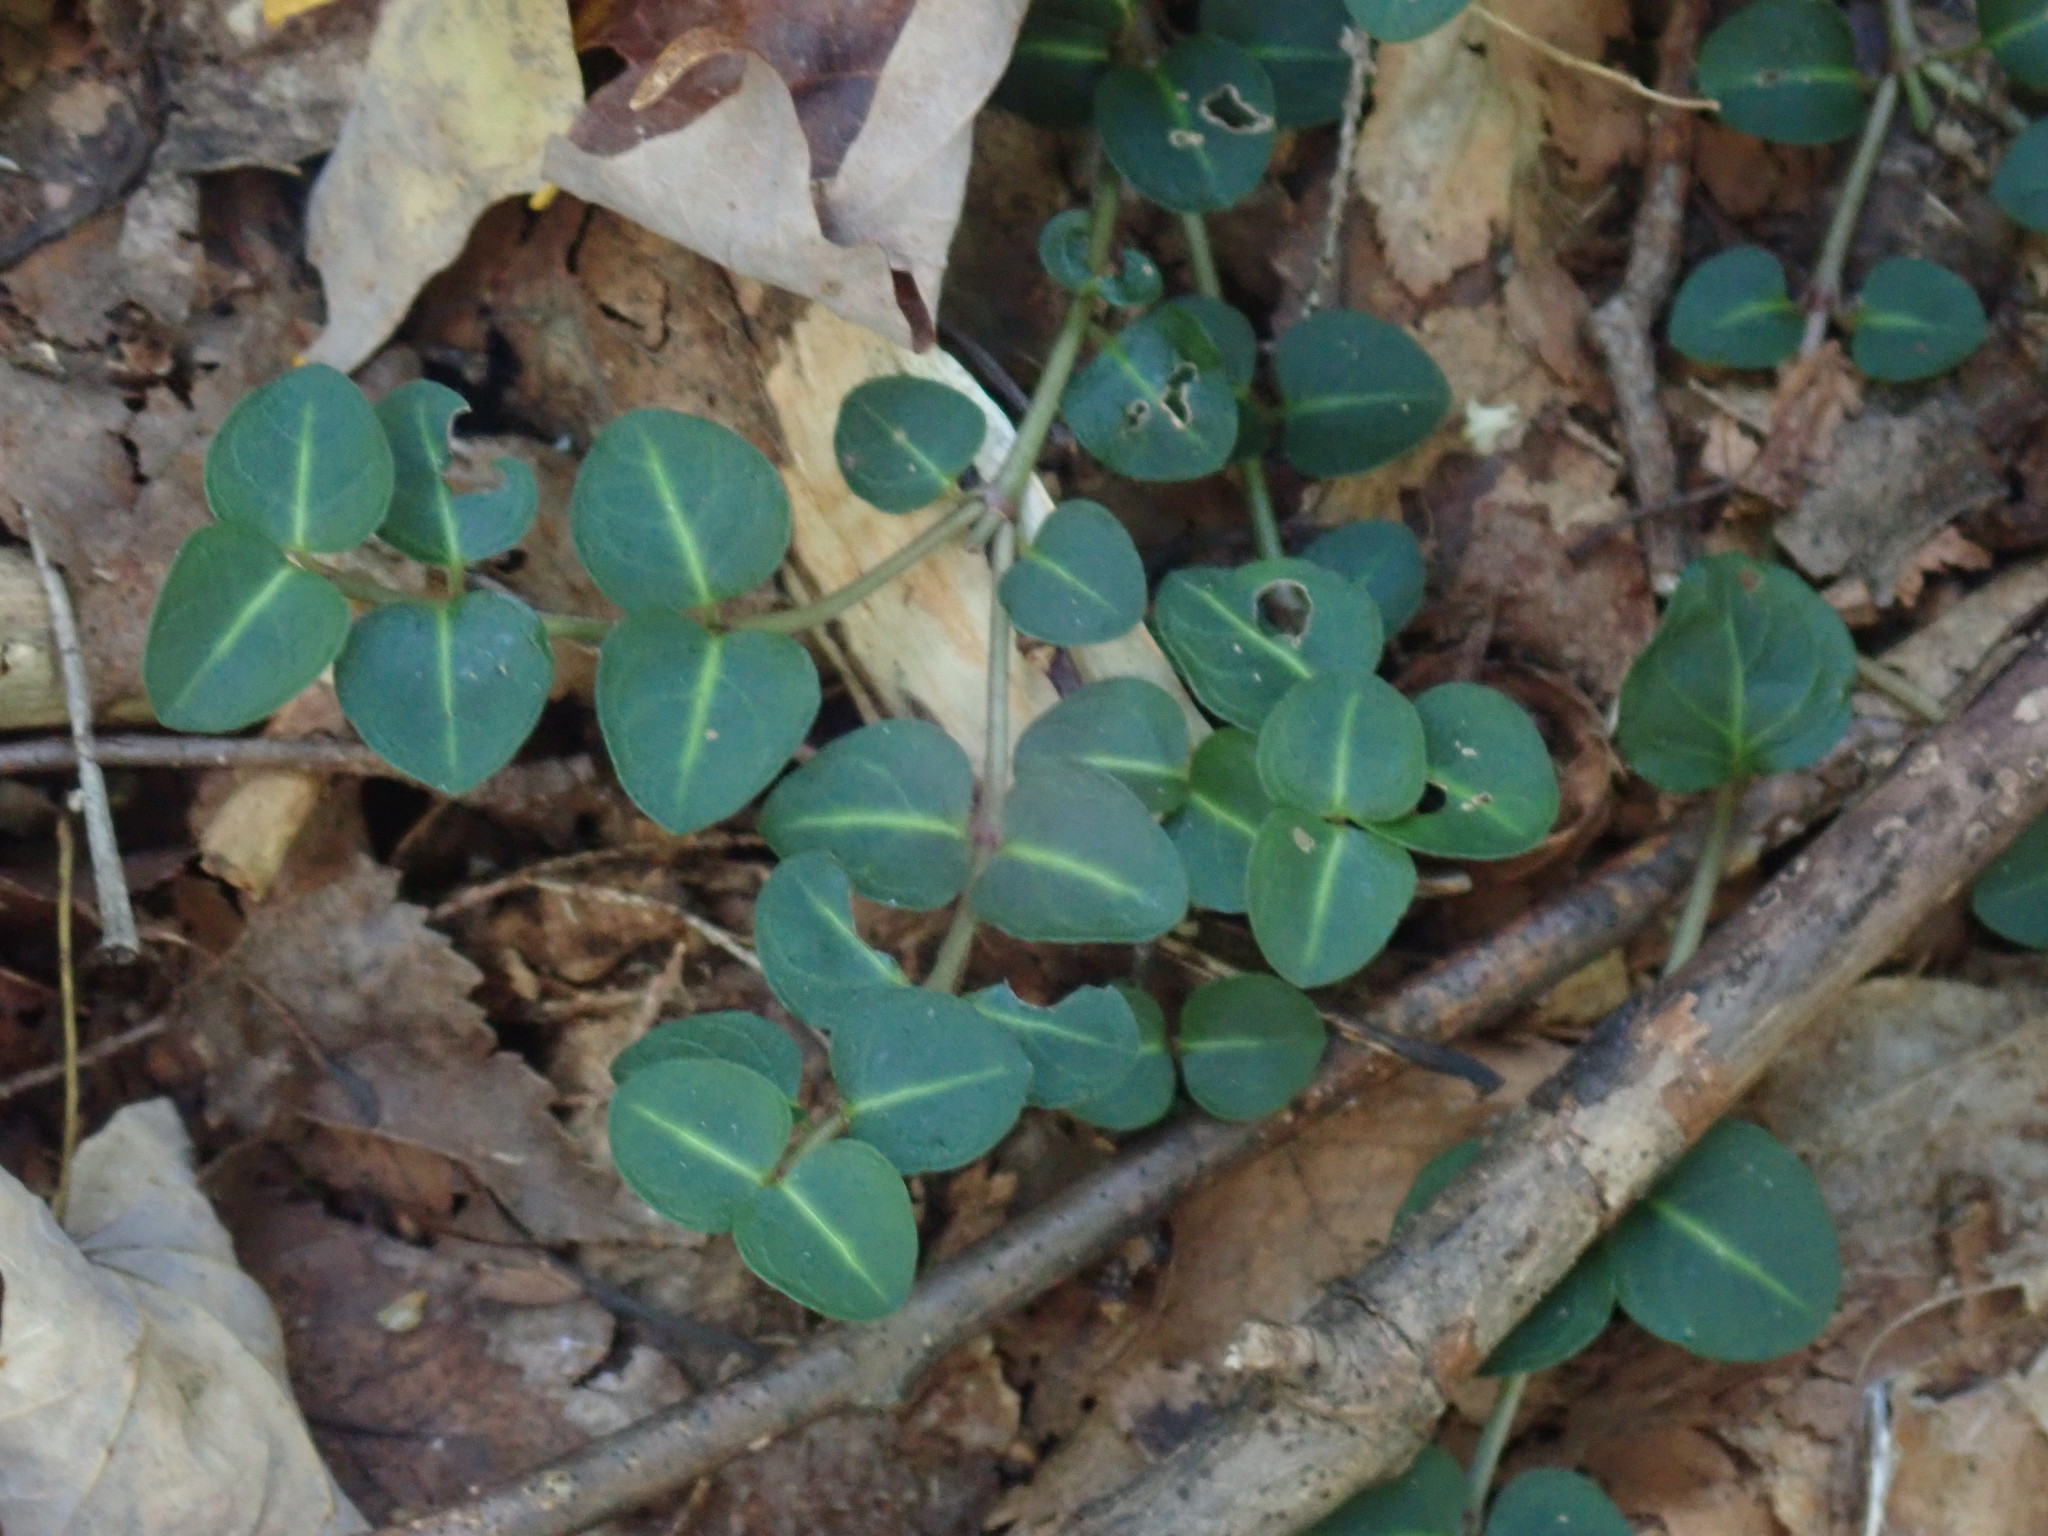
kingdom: Plantae
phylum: Tracheophyta
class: Magnoliopsida
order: Gentianales
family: Rubiaceae
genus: Mitchella
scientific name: Mitchella repens
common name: Partridge-berry
